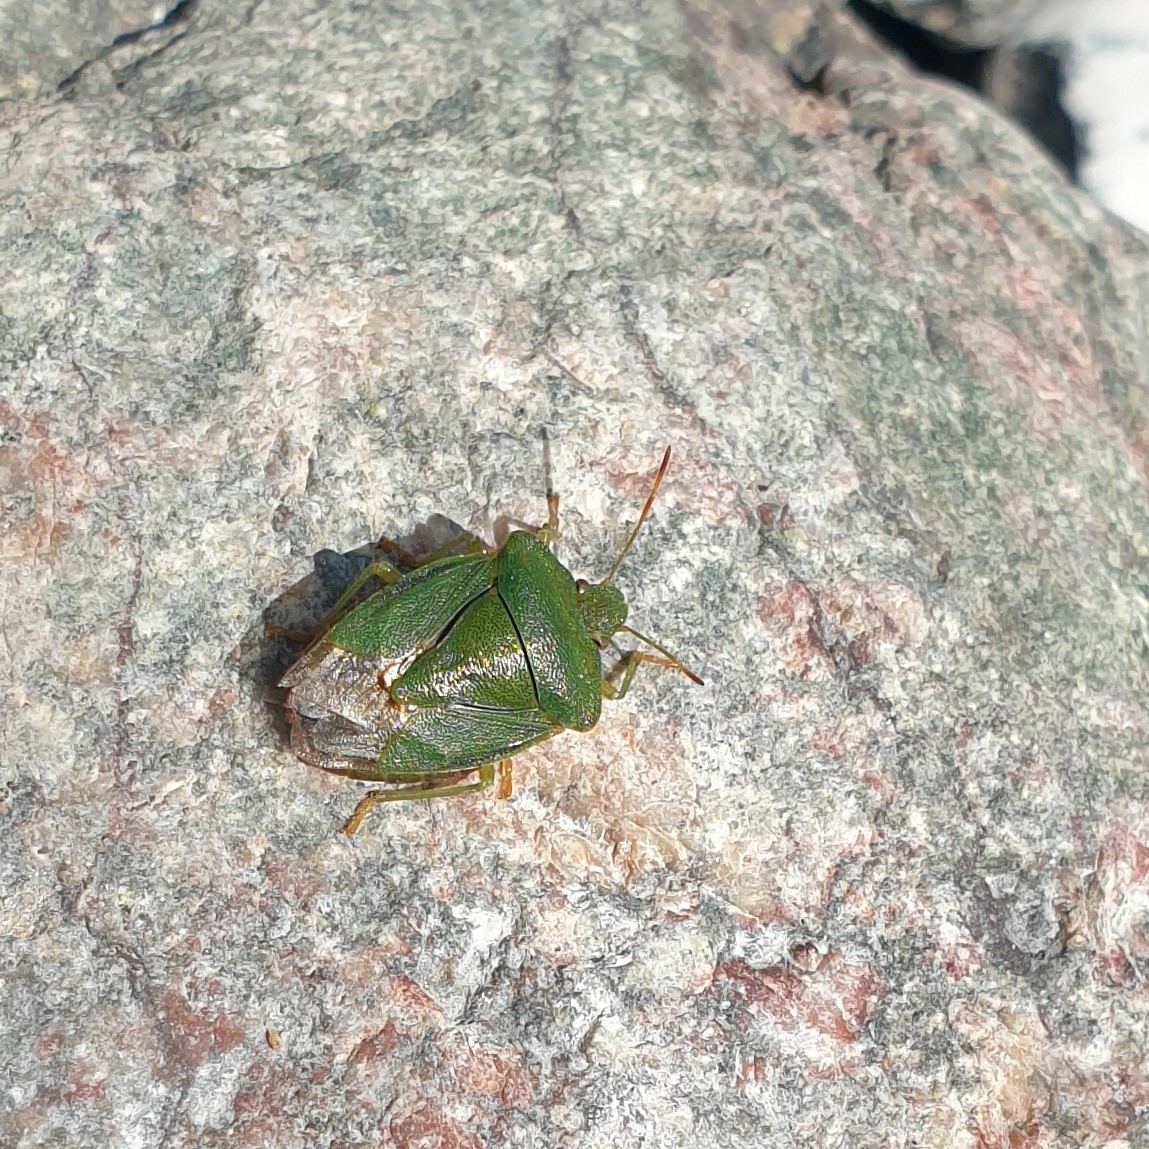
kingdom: Animalia
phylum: Arthropoda
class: Insecta
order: Hemiptera
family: Pentatomidae
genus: Palomena
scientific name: Palomena prasina
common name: Green shieldbug
